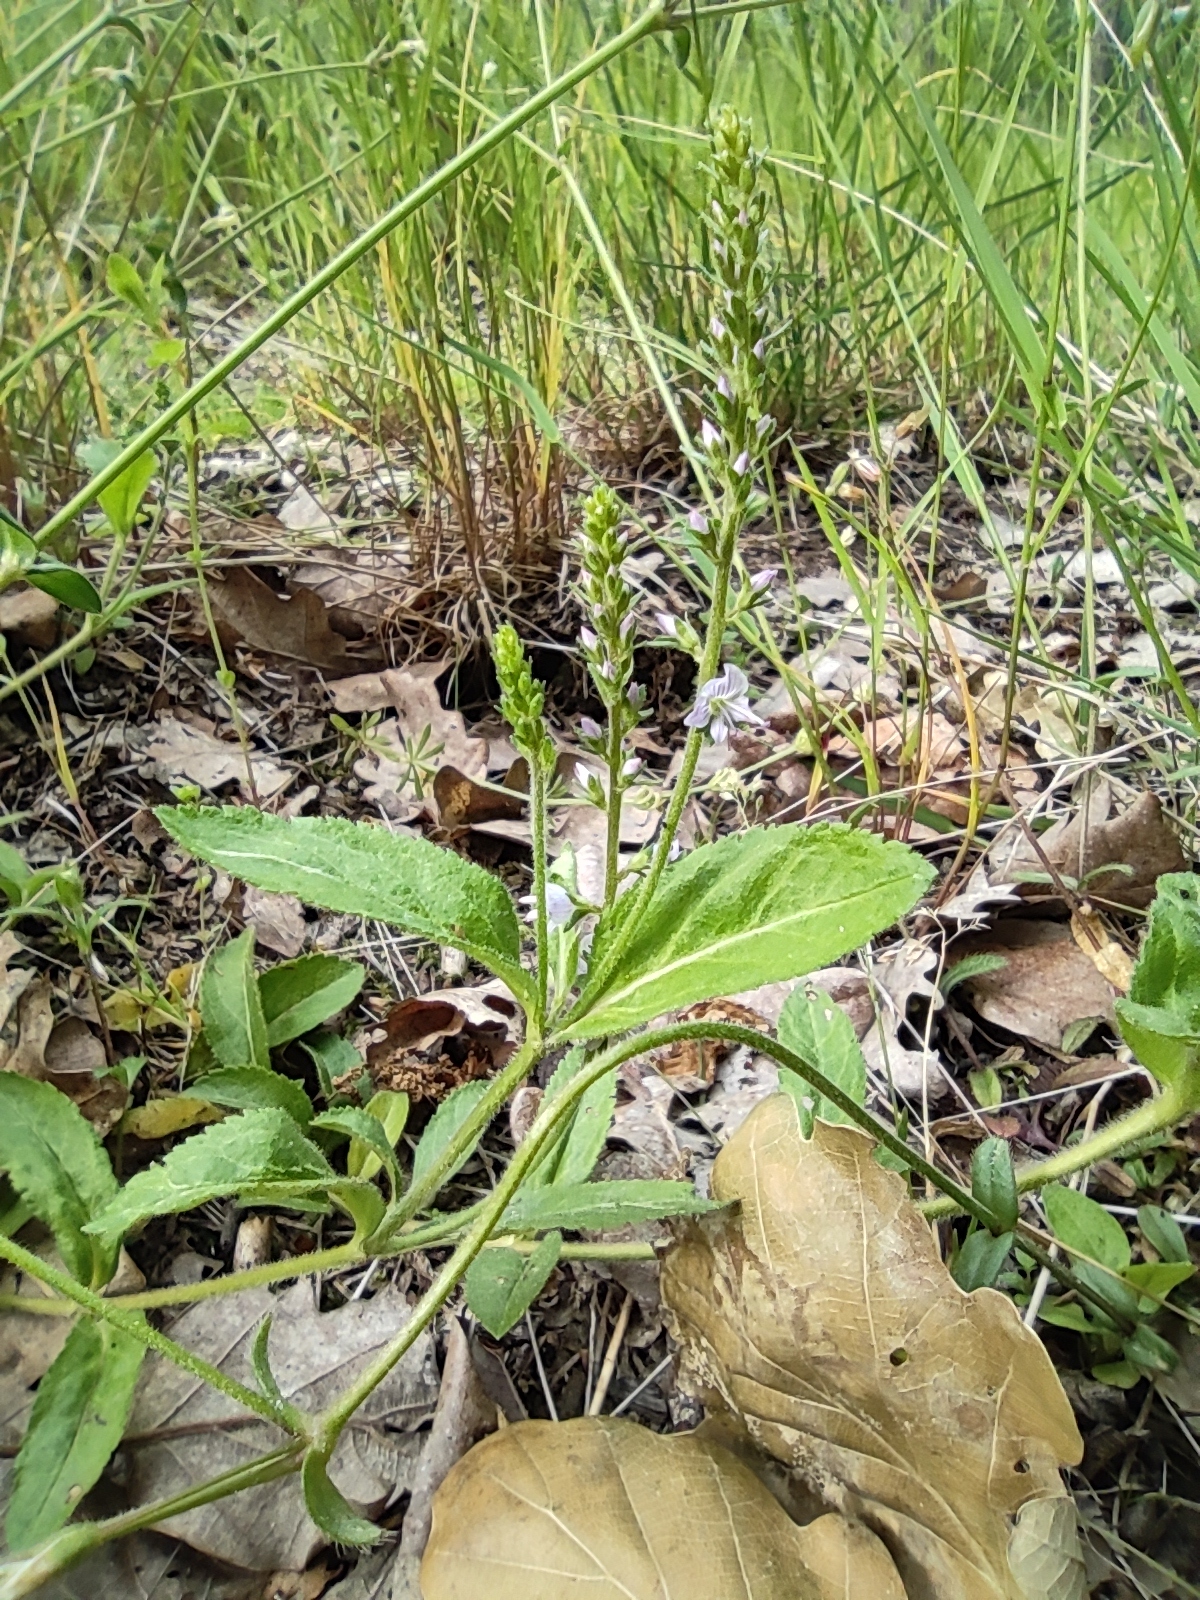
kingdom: Plantae
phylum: Tracheophyta
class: Magnoliopsida
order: Lamiales
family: Plantaginaceae
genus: Veronica
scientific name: Veronica officinalis
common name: Common speedwell
